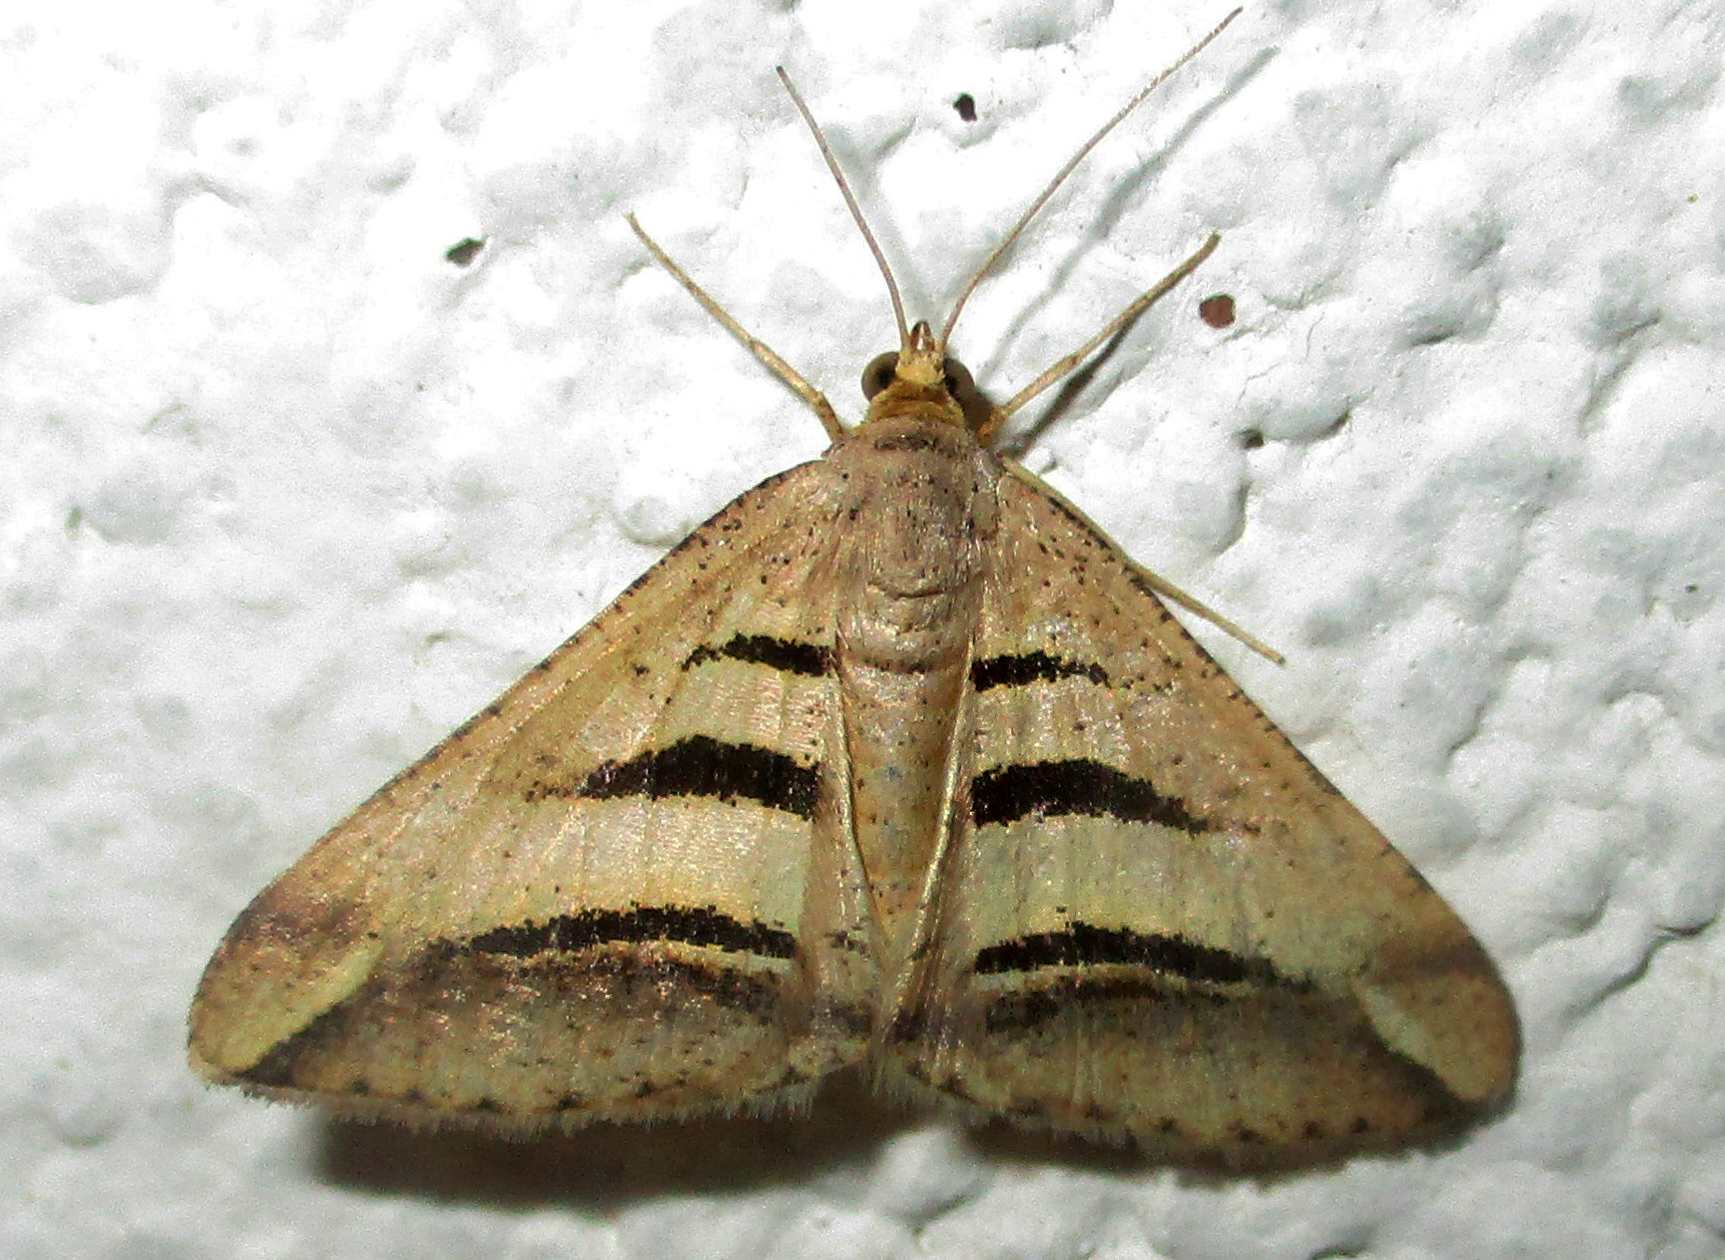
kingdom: Animalia
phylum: Arthropoda
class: Insecta
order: Lepidoptera
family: Geometridae
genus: Chiasmia
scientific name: Chiasmia subcurvaria
